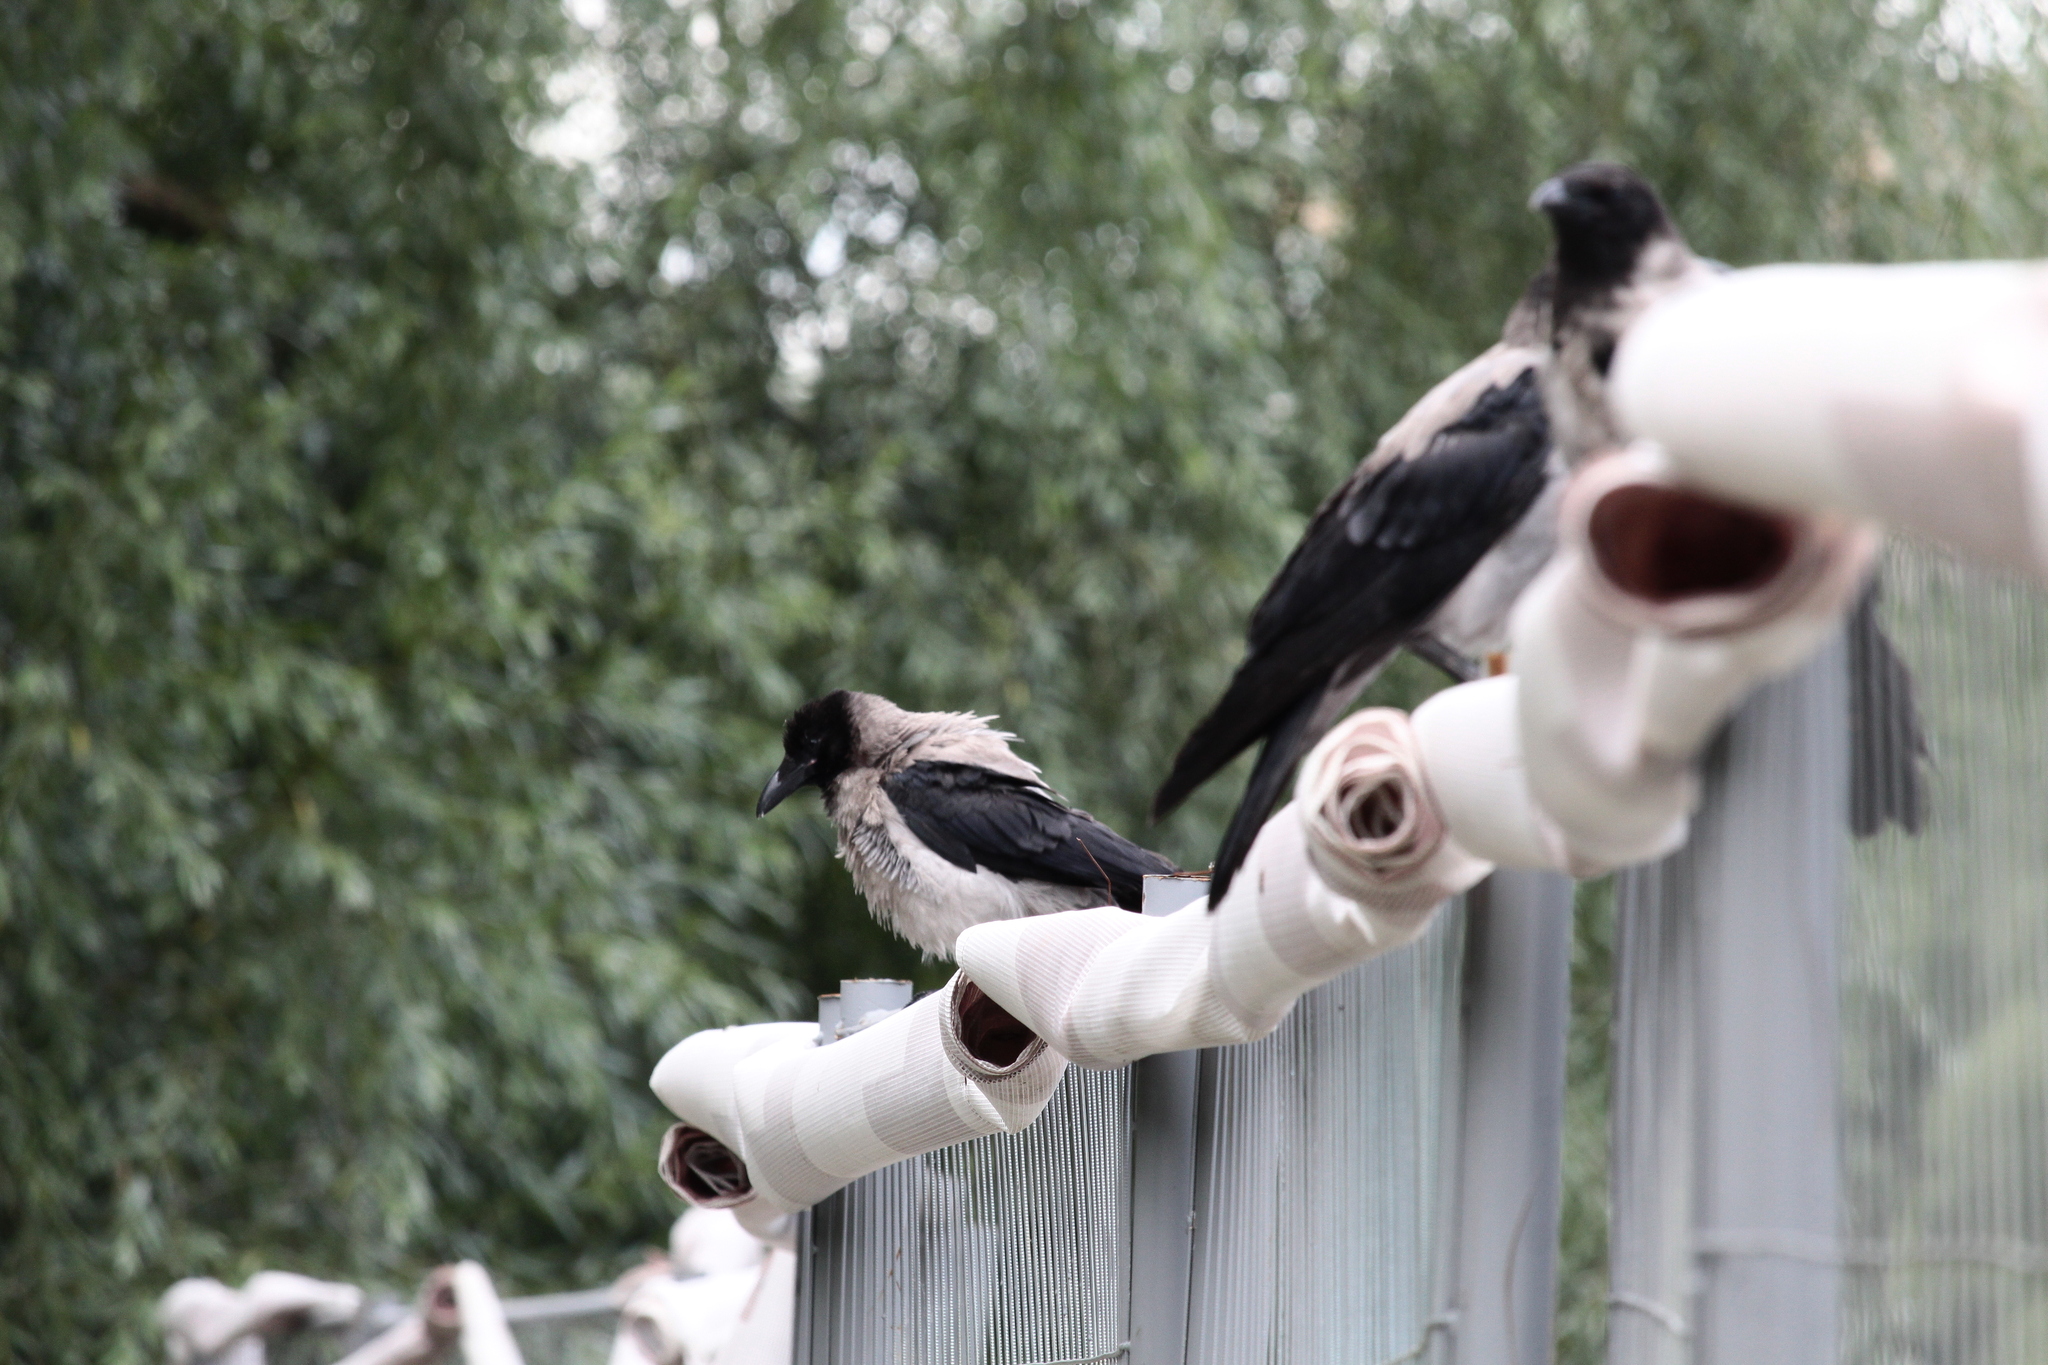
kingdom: Animalia
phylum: Chordata
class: Aves
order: Passeriformes
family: Corvidae
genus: Corvus
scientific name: Corvus cornix
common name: Hooded crow
